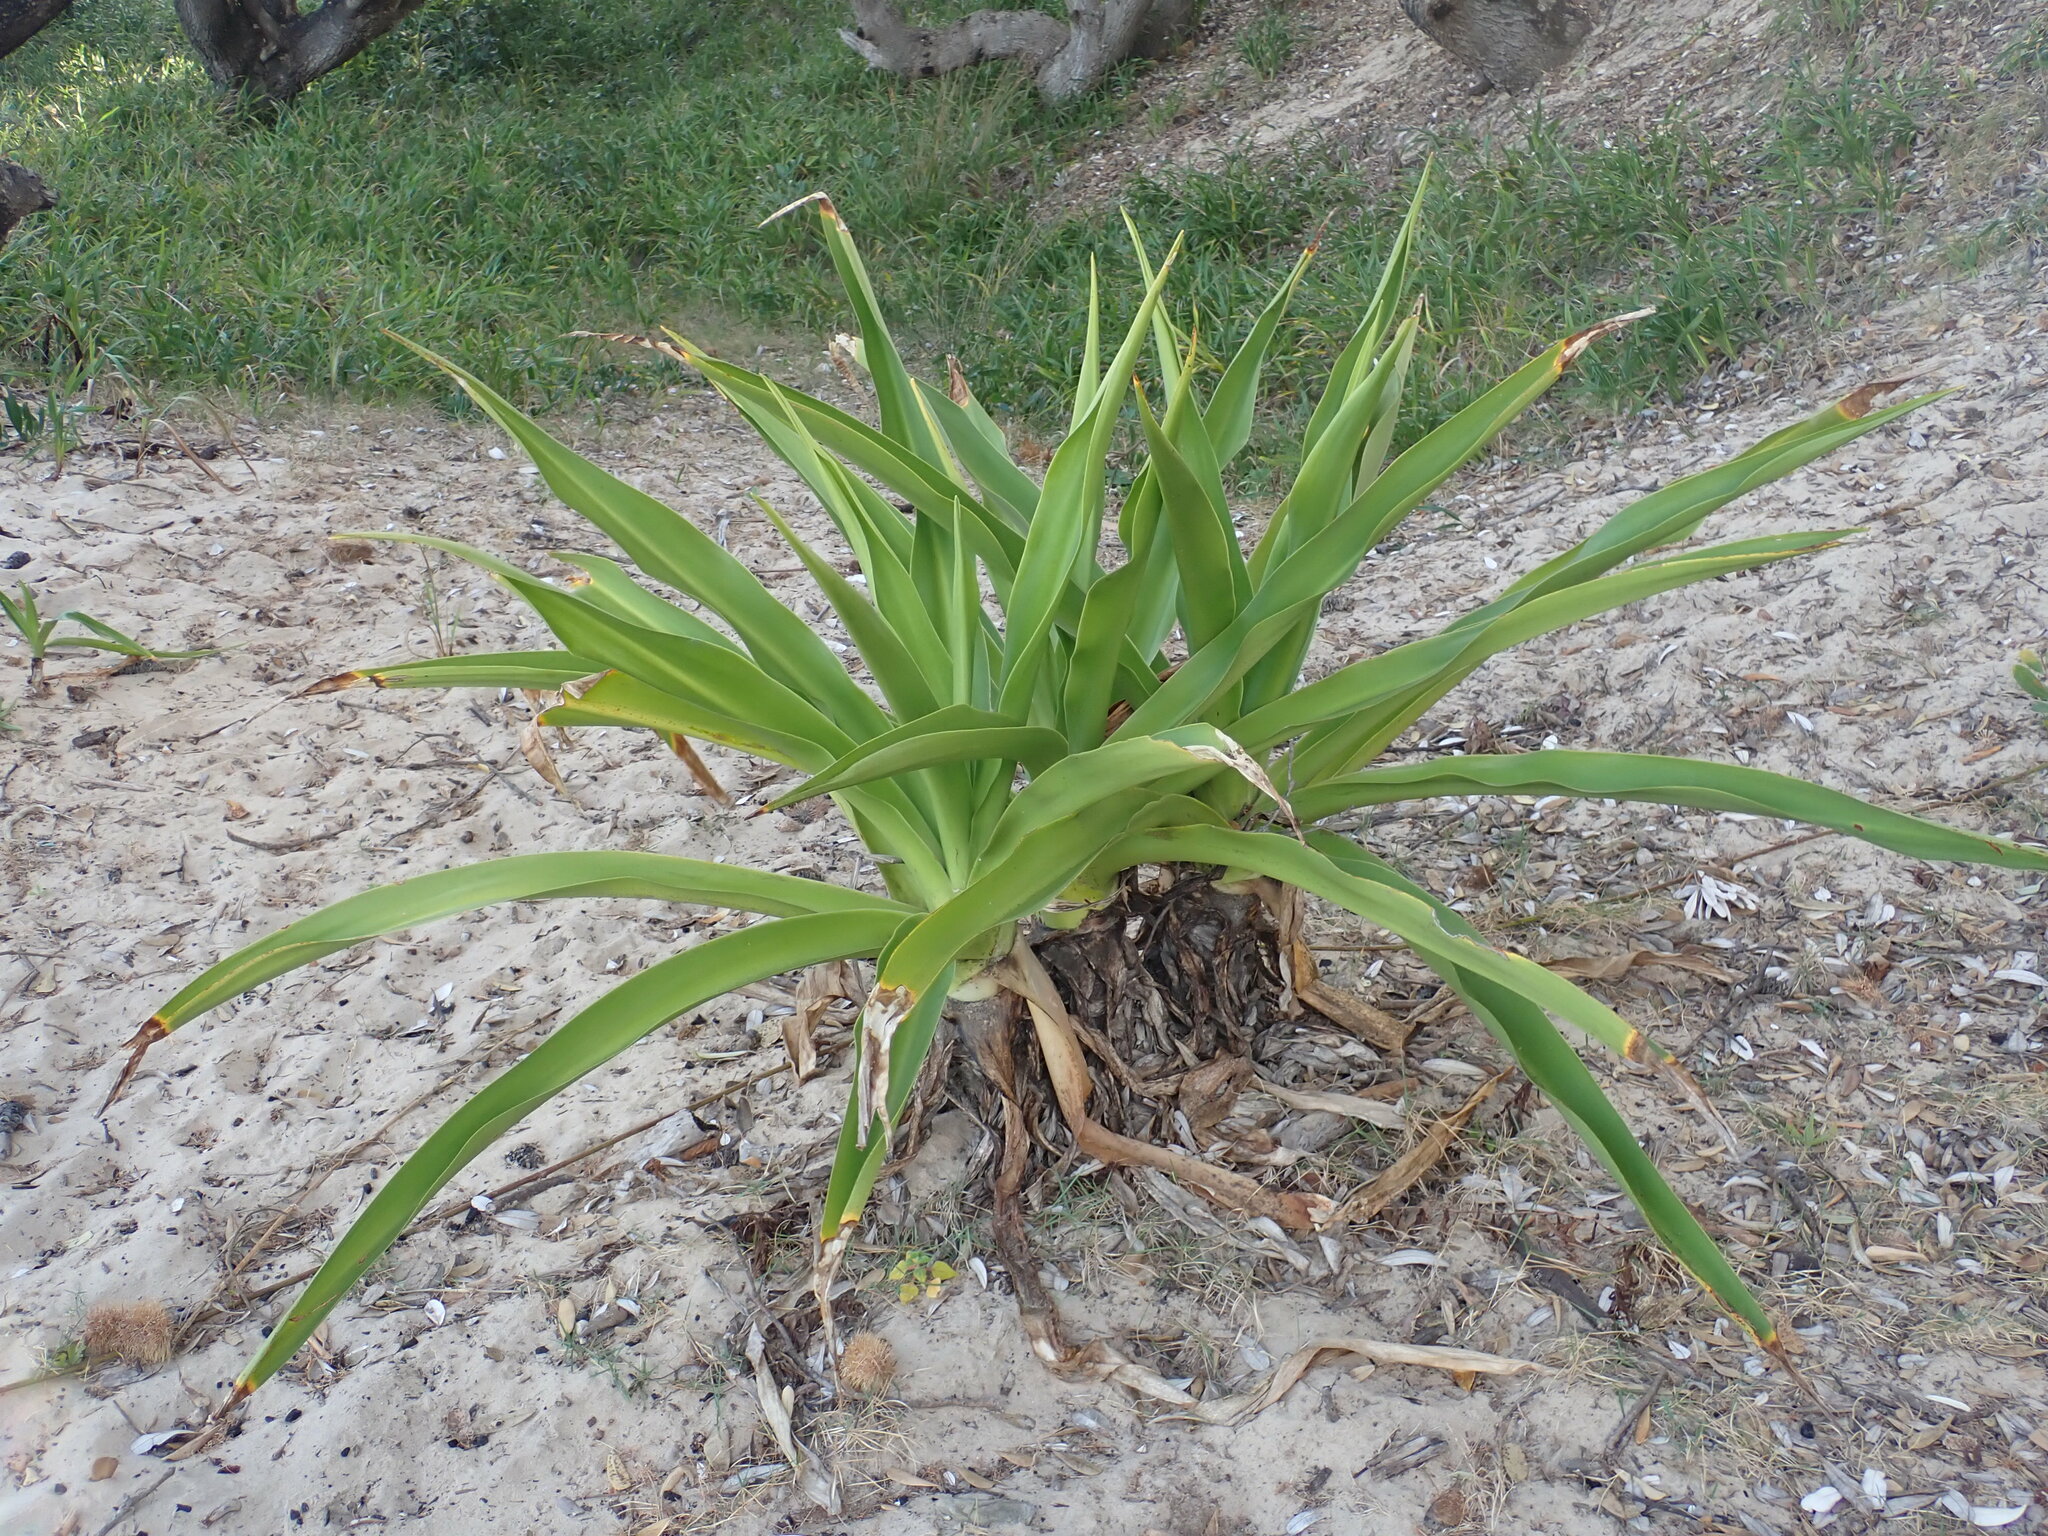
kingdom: Plantae
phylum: Tracheophyta
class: Liliopsida
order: Asparagales
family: Amaryllidaceae
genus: Crinum
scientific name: Crinum pedunculatum
